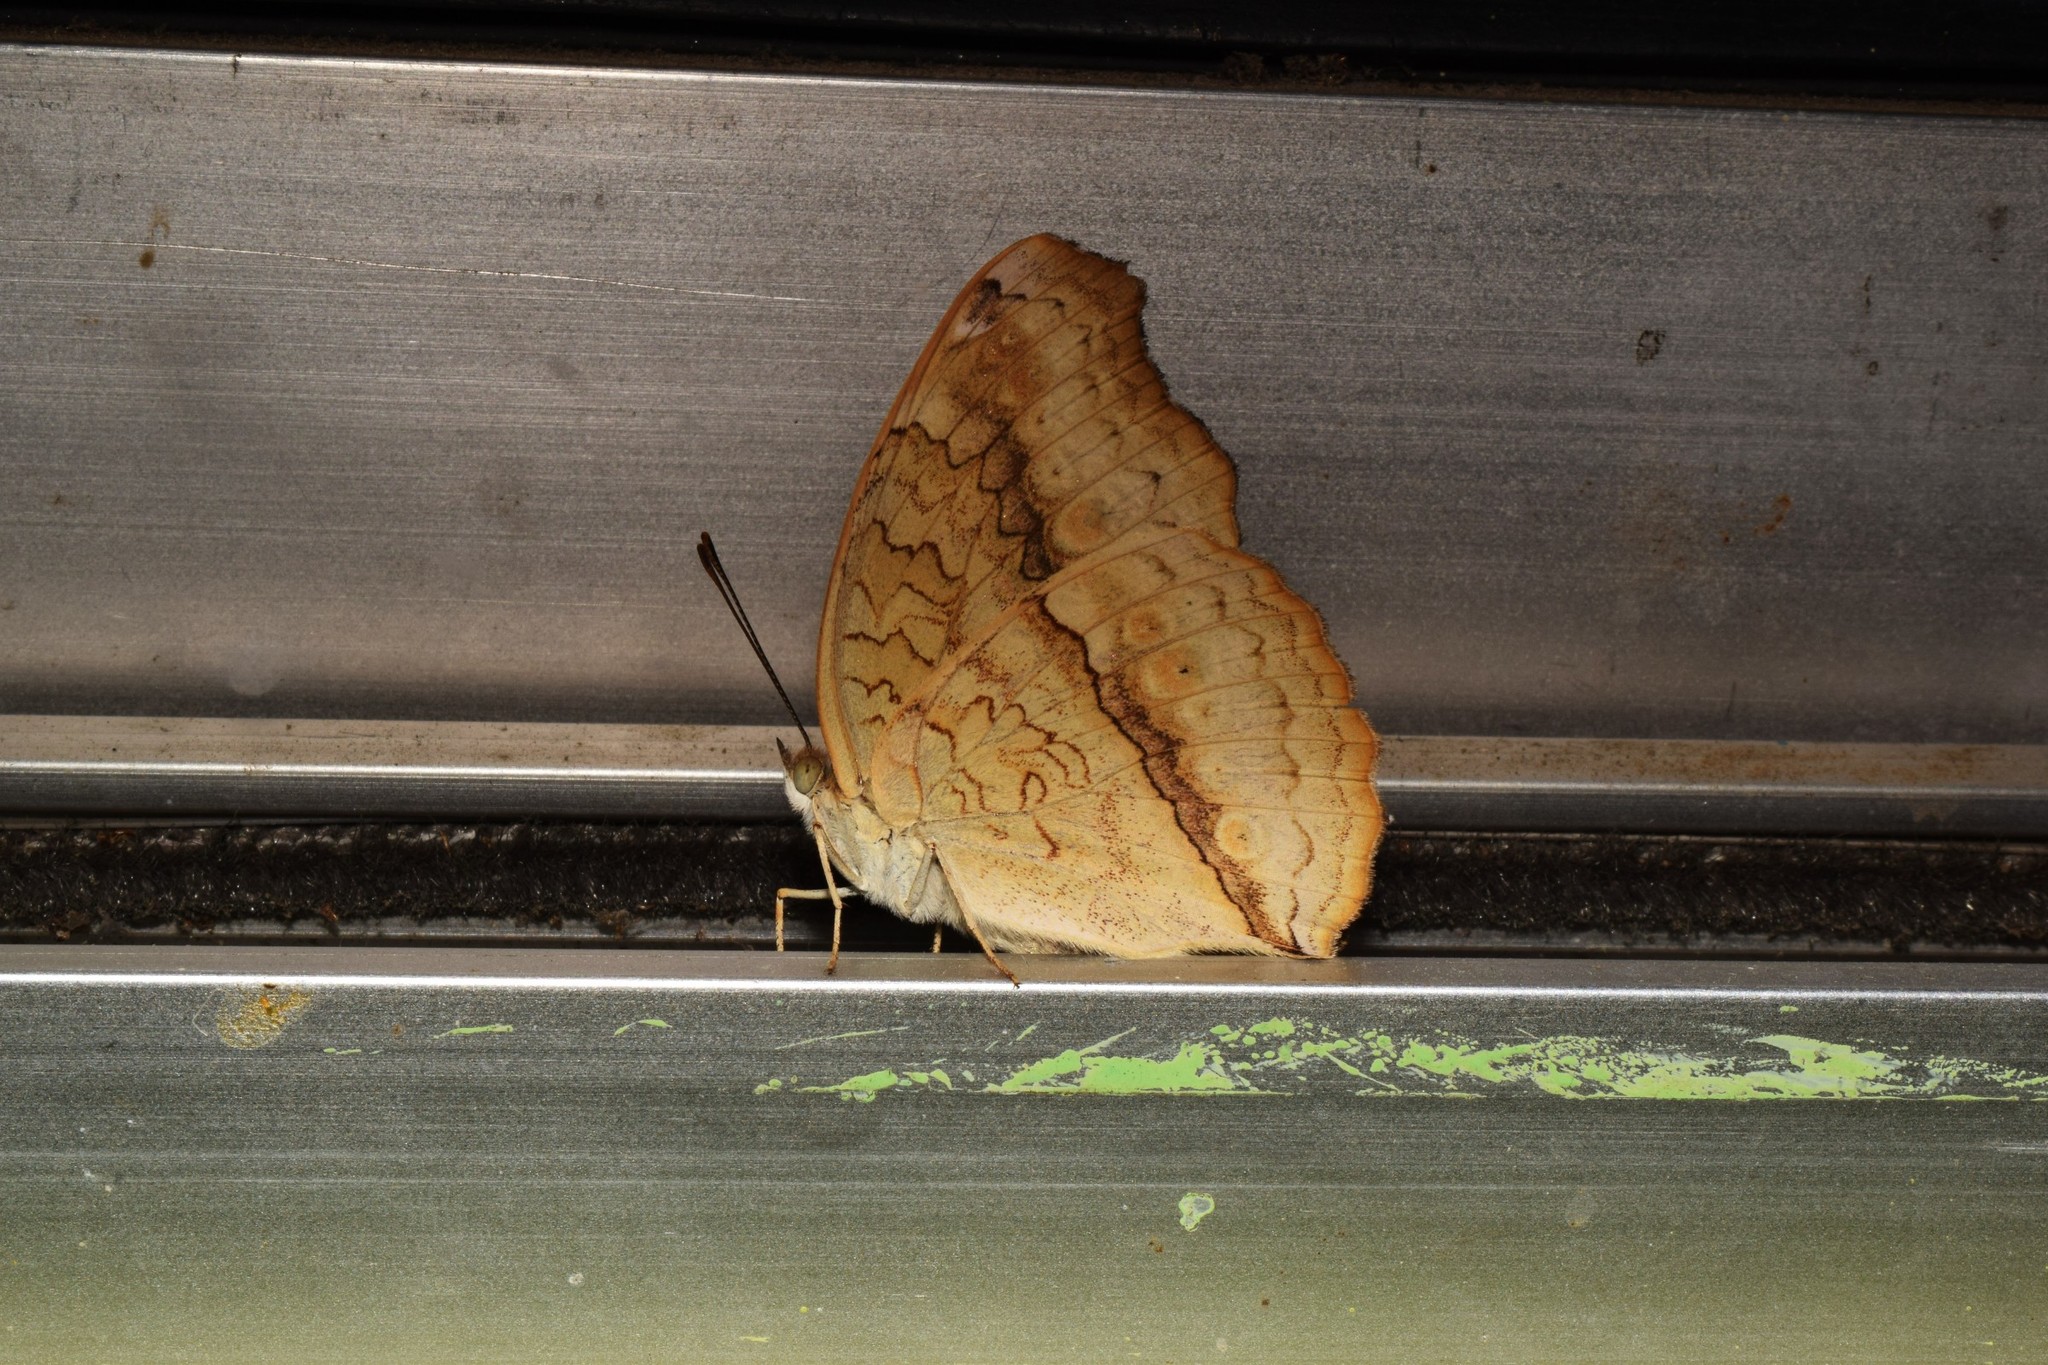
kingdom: Animalia
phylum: Arthropoda
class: Insecta
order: Lepidoptera
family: Nymphalidae
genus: Junonia
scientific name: Junonia atlites
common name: Grey pansy
